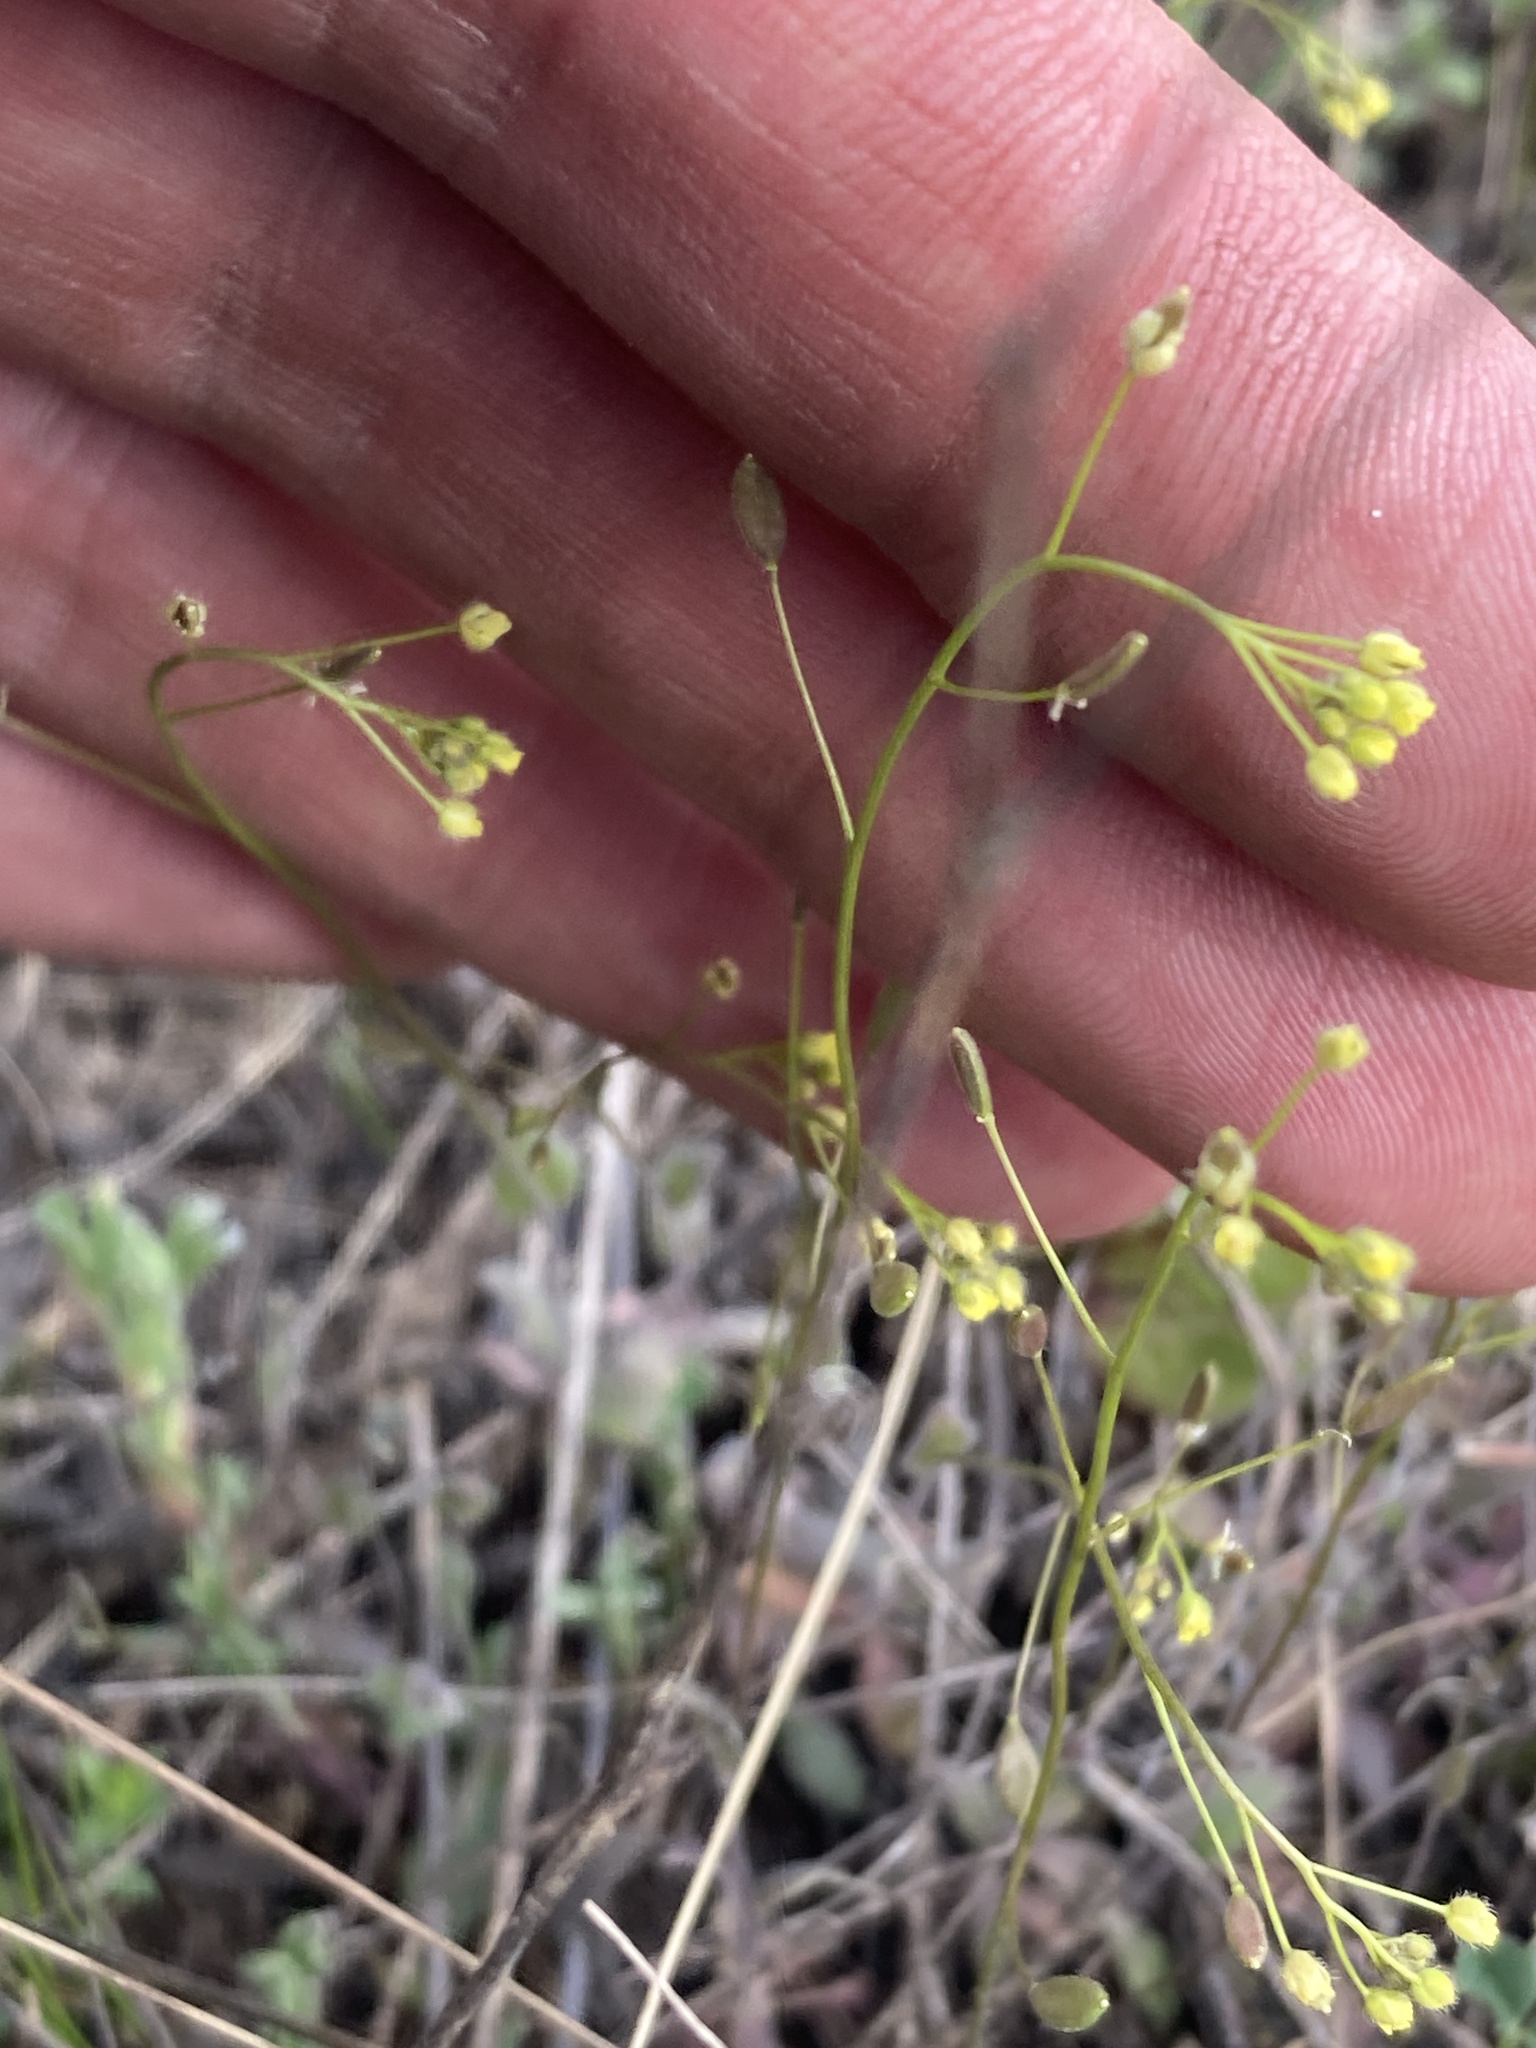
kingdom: Plantae
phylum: Tracheophyta
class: Magnoliopsida
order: Brassicales
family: Brassicaceae
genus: Draba
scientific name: Draba nemorosa
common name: Wood whitlow-grass
